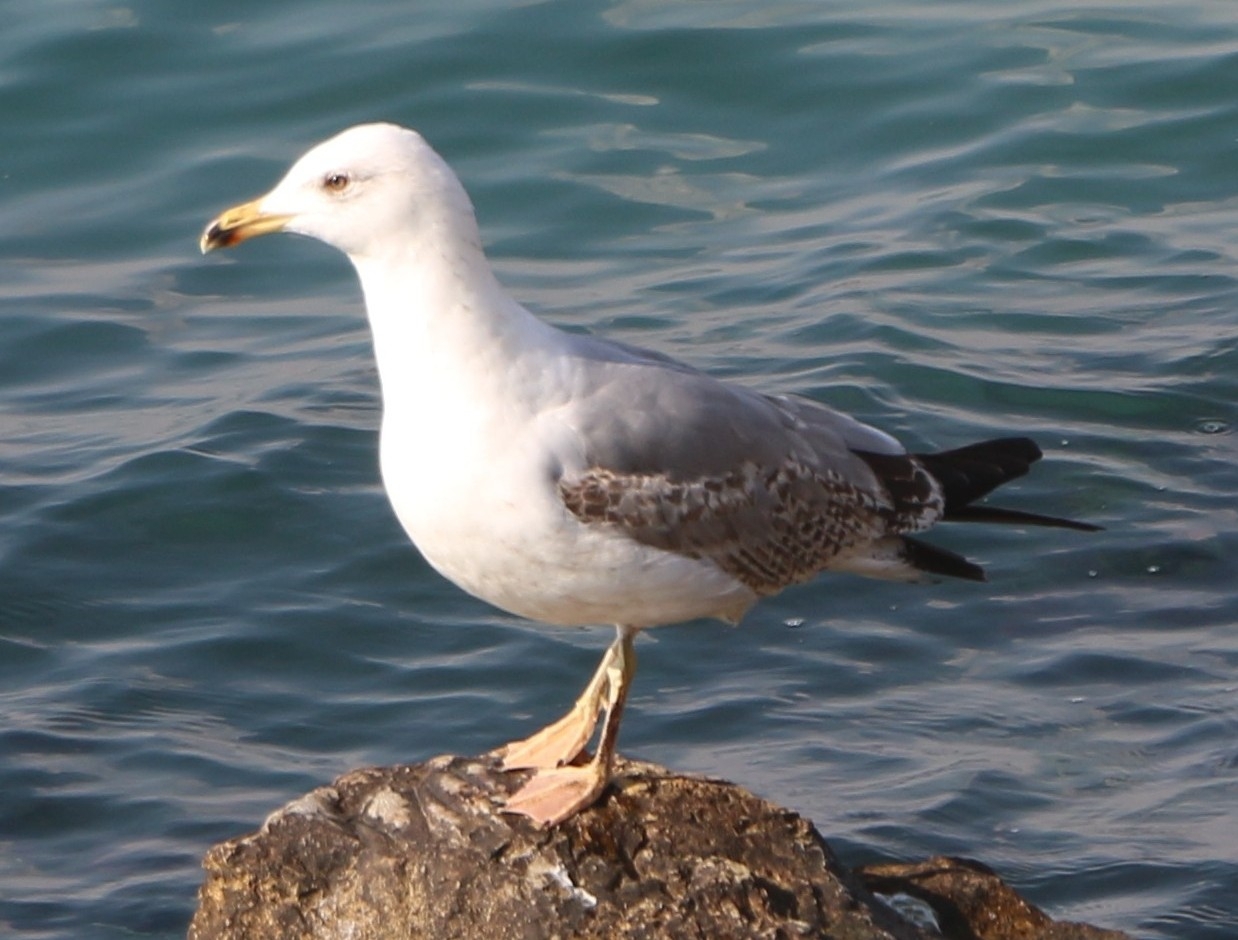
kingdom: Animalia
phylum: Chordata
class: Aves
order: Charadriiformes
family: Laridae
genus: Larus
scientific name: Larus michahellis
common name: Yellow-legged gull
